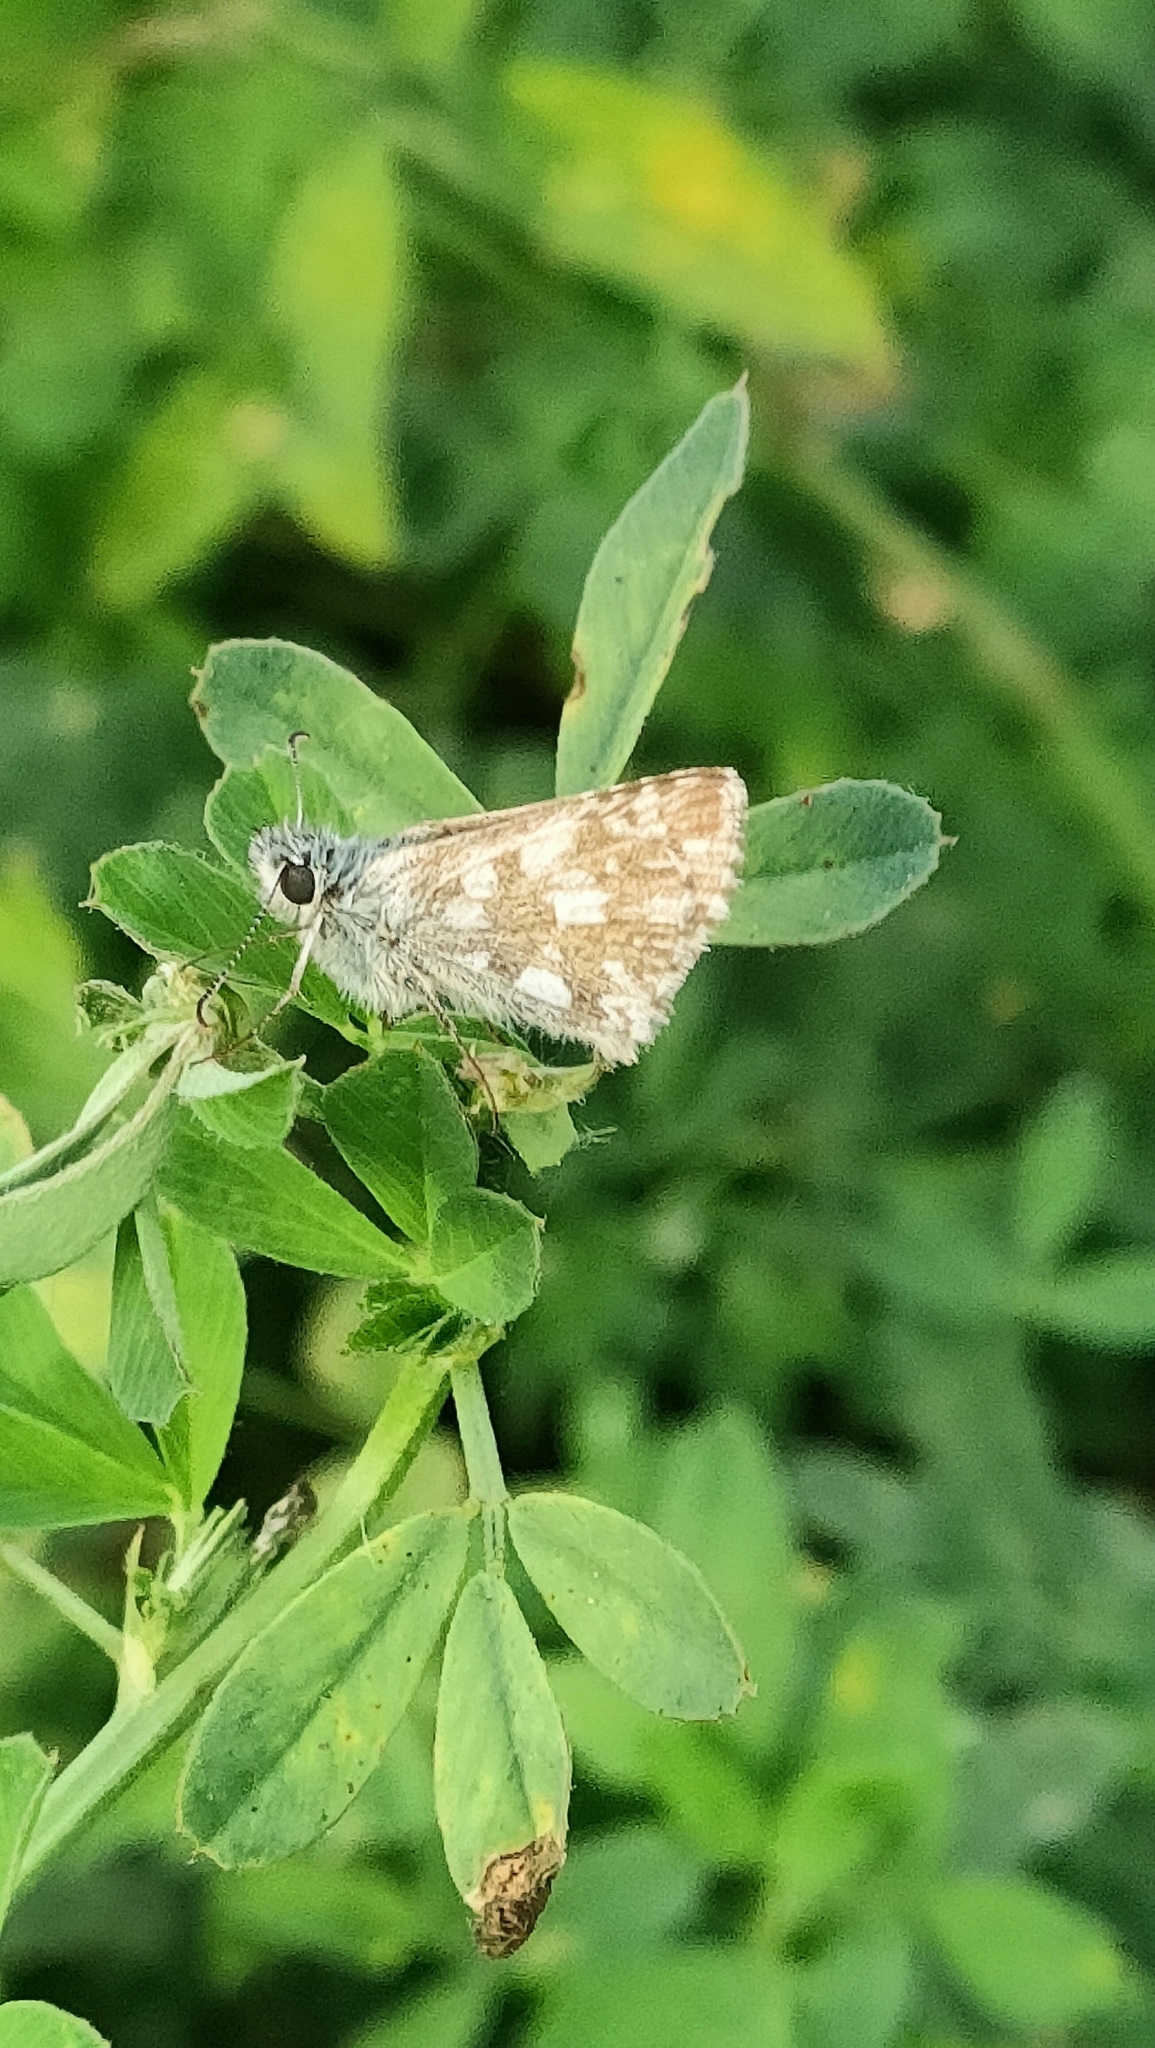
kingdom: Animalia
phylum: Arthropoda
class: Insecta
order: Lepidoptera
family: Hesperiidae
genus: Pyrgus
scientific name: Pyrgus armoricanus
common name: Oberthür's grizzled skipper
